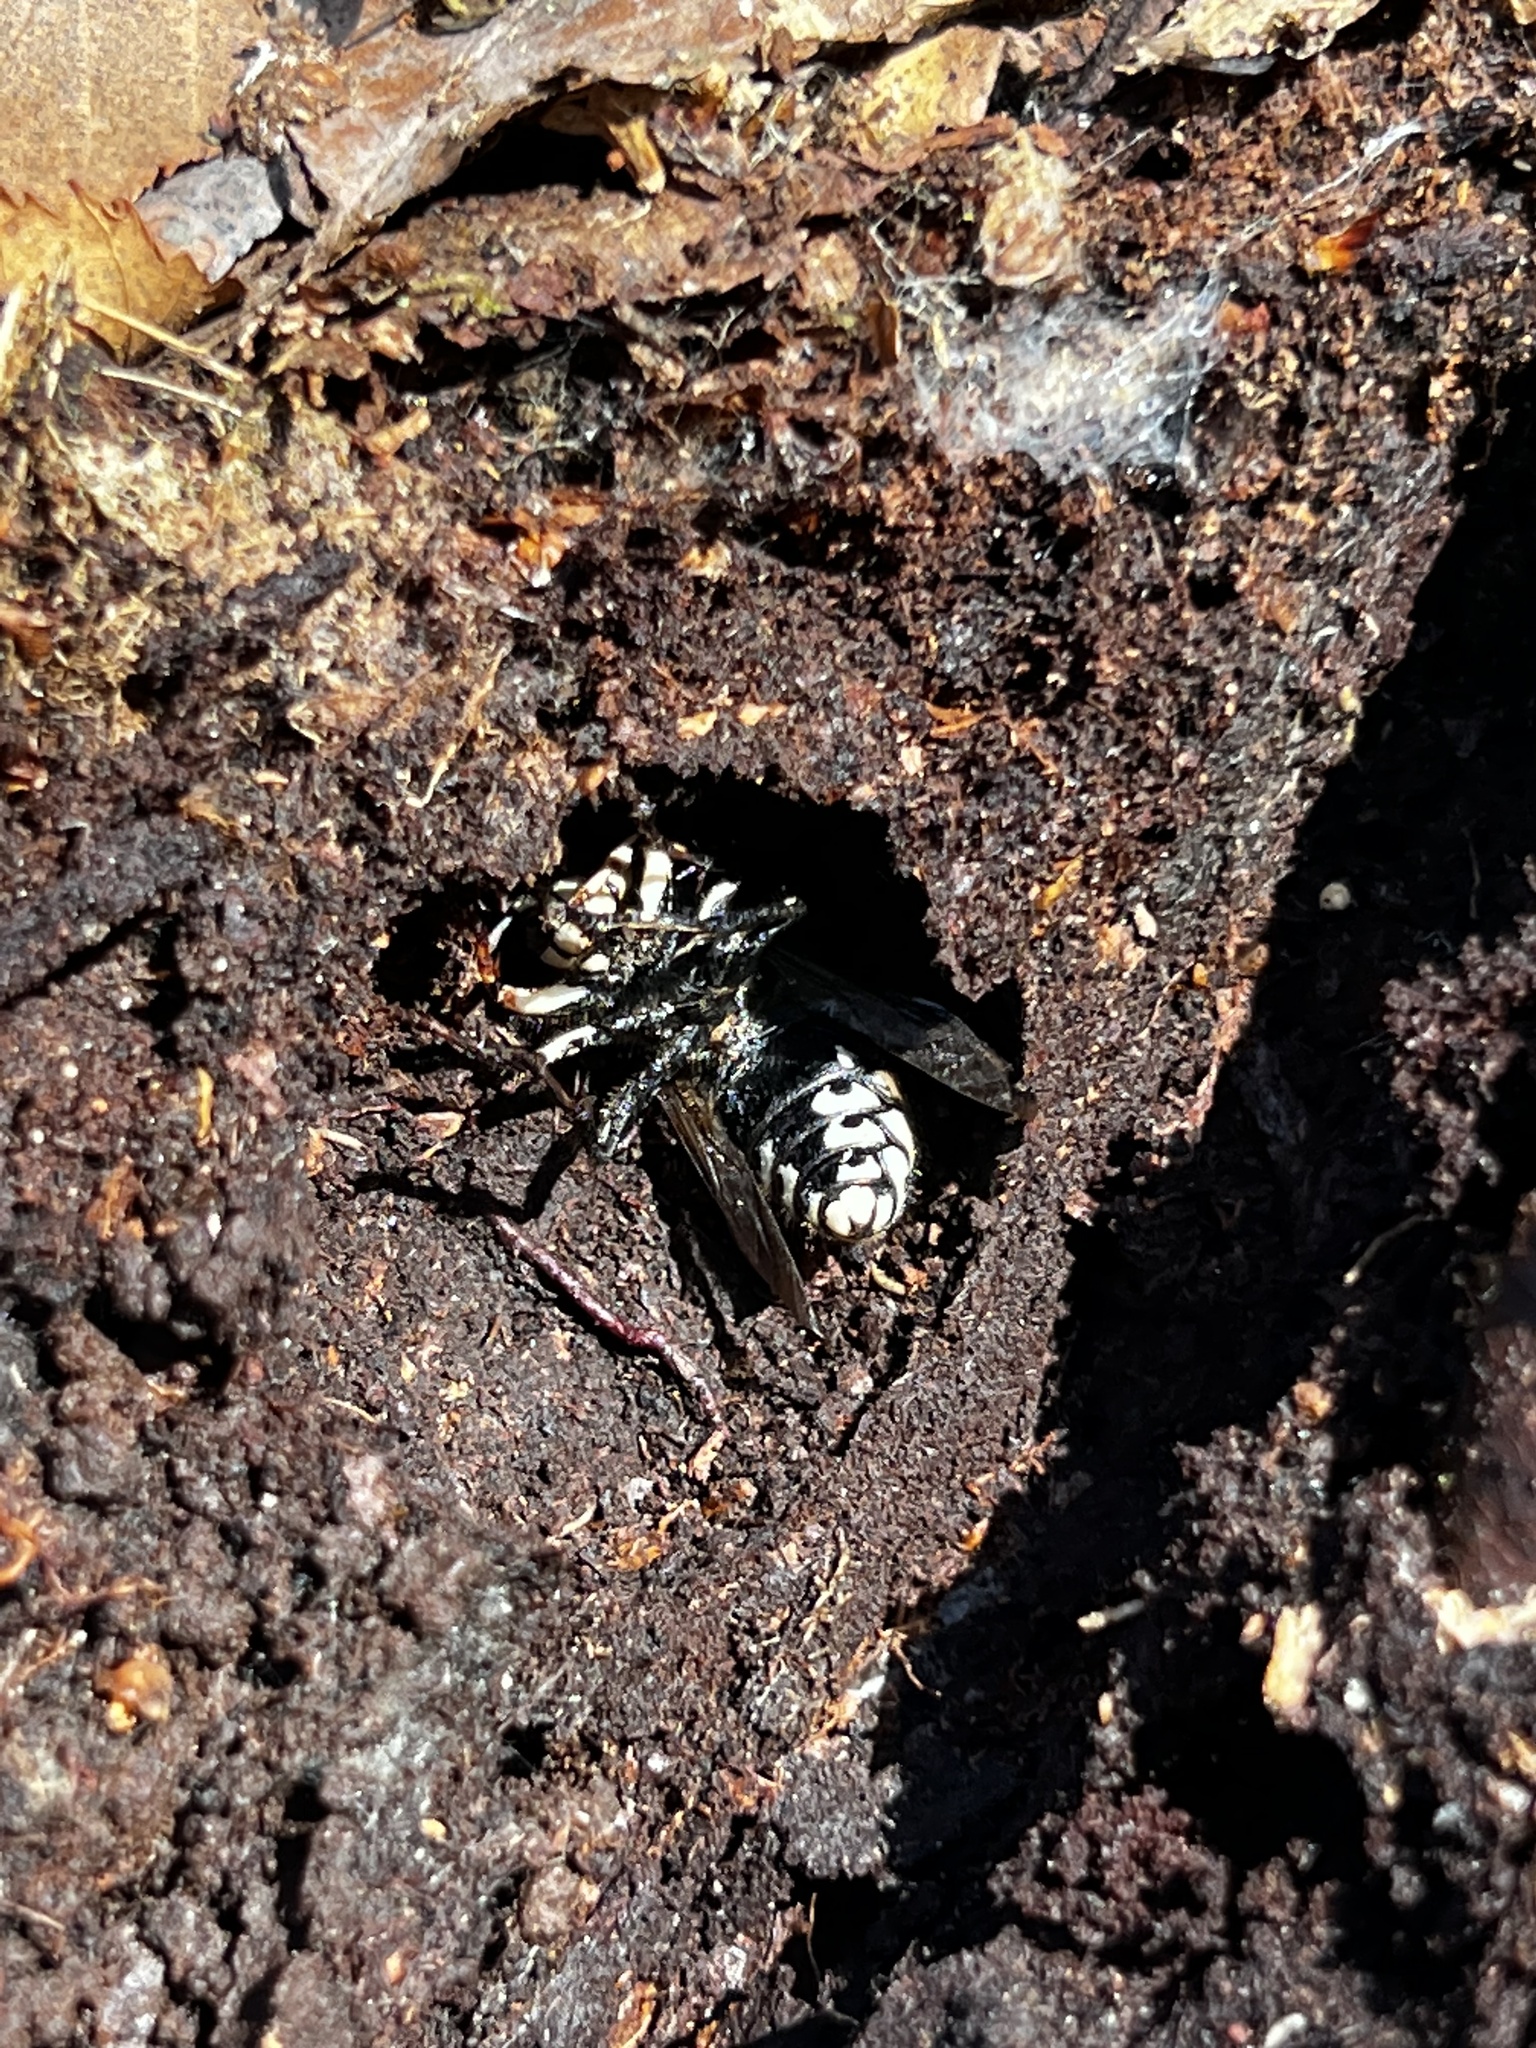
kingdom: Animalia
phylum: Arthropoda
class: Insecta
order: Hymenoptera
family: Vespidae
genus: Dolichovespula
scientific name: Dolichovespula maculata
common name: Bald-faced hornet
